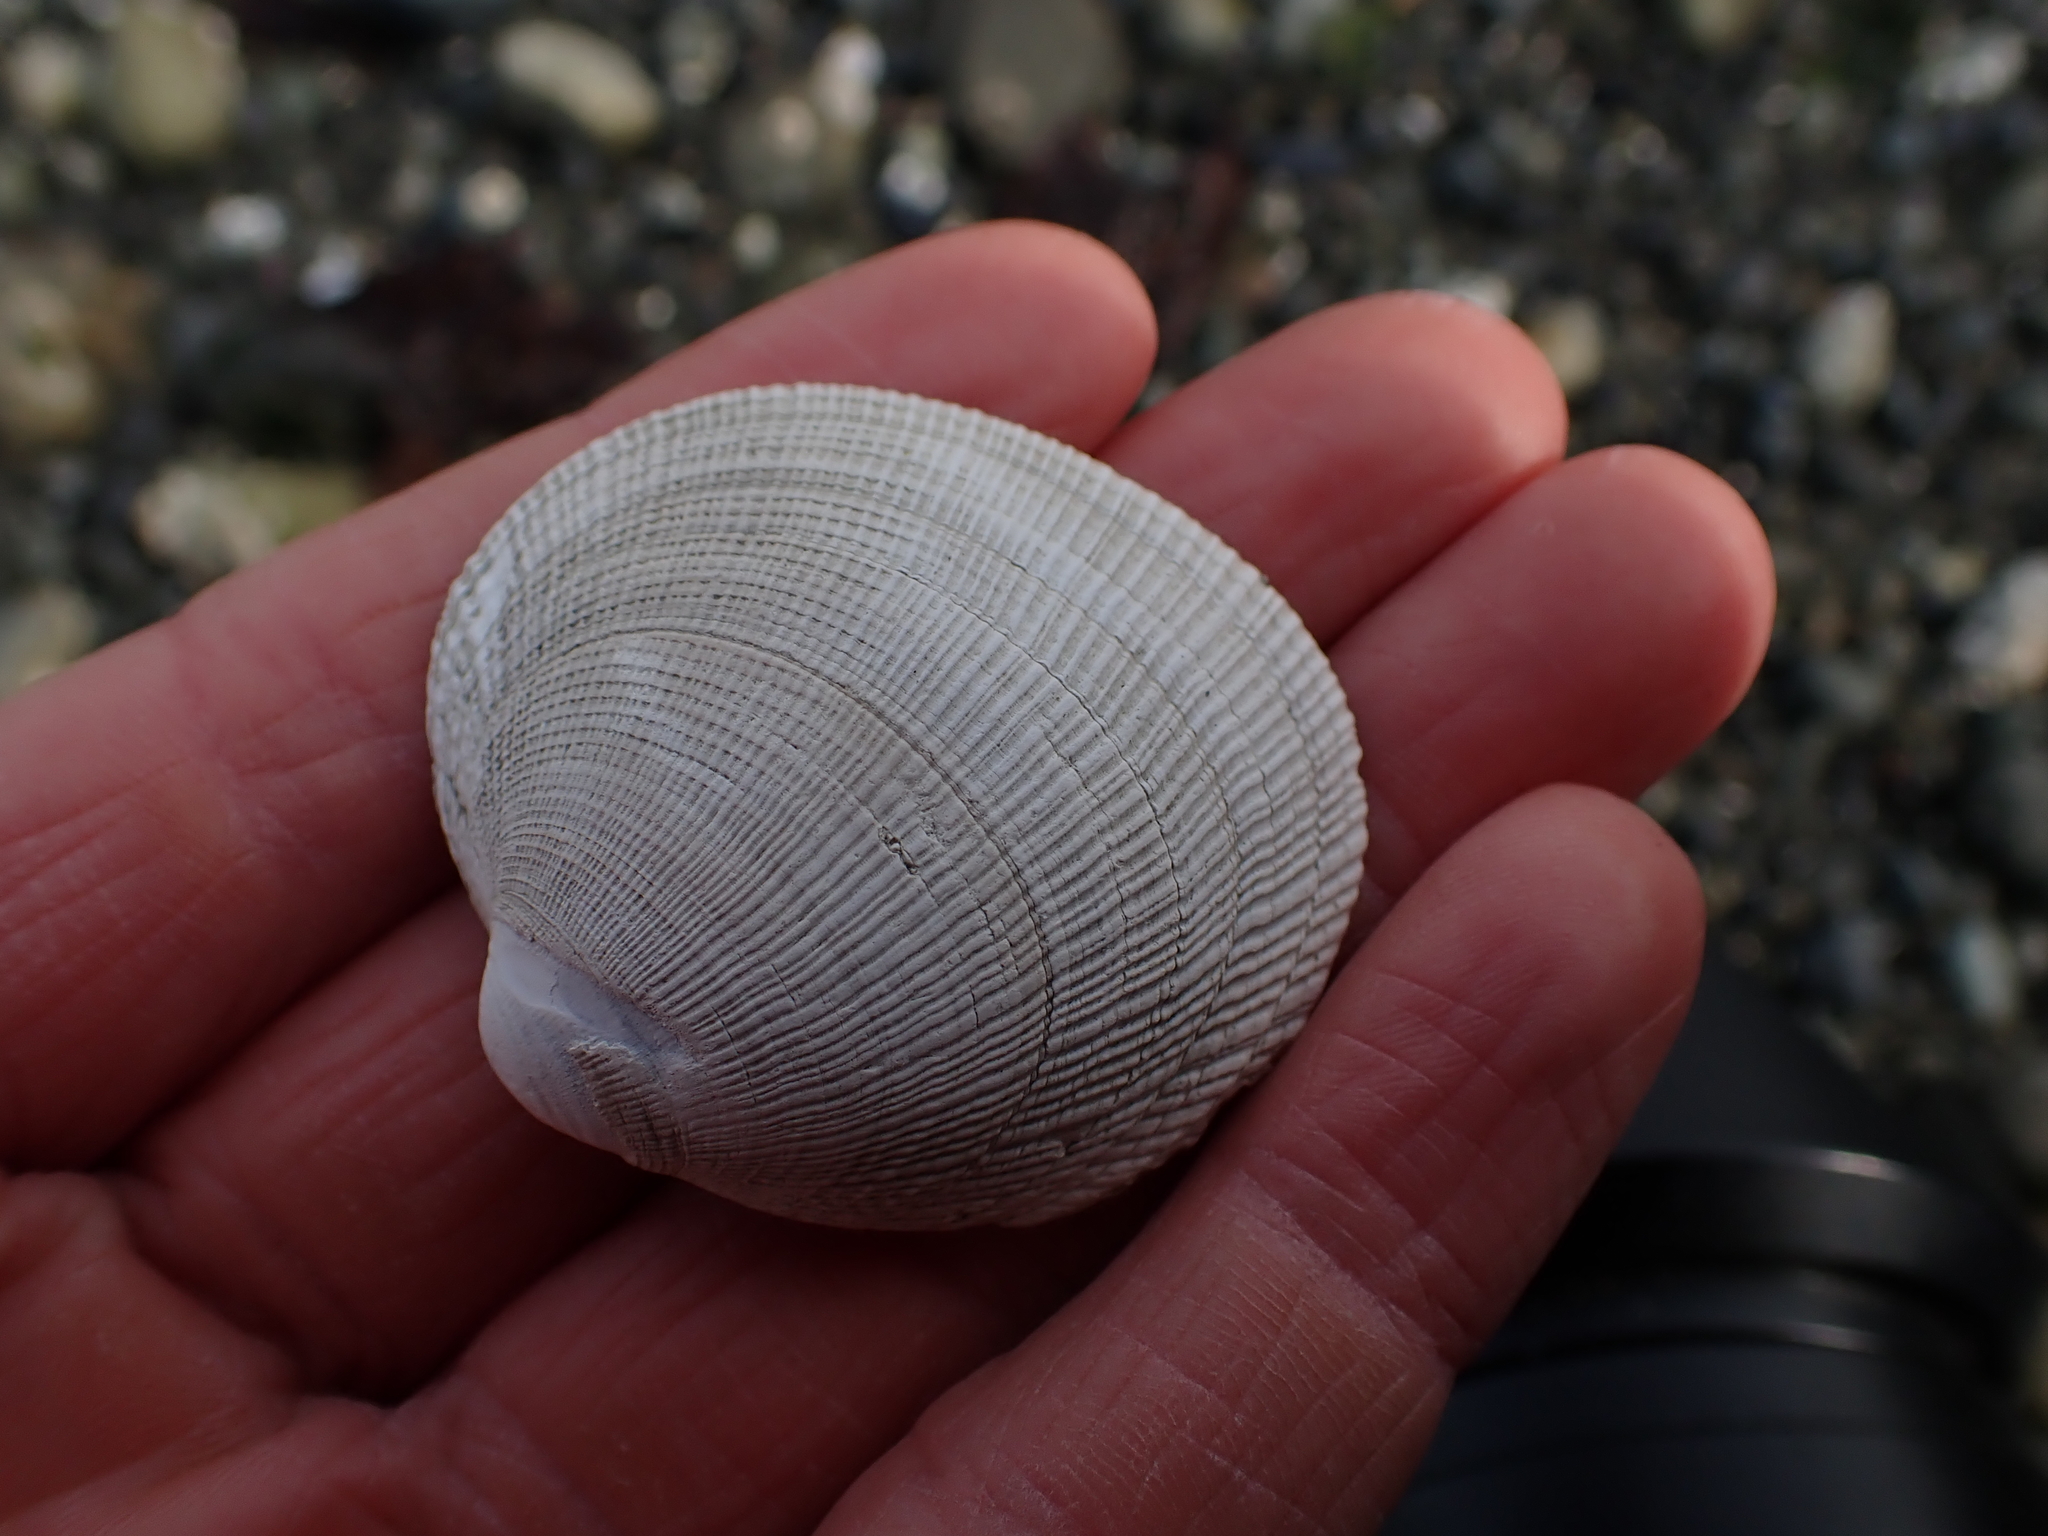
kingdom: Animalia
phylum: Mollusca
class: Bivalvia
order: Venerida
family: Veneridae
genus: Leukoma
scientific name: Leukoma staminea
